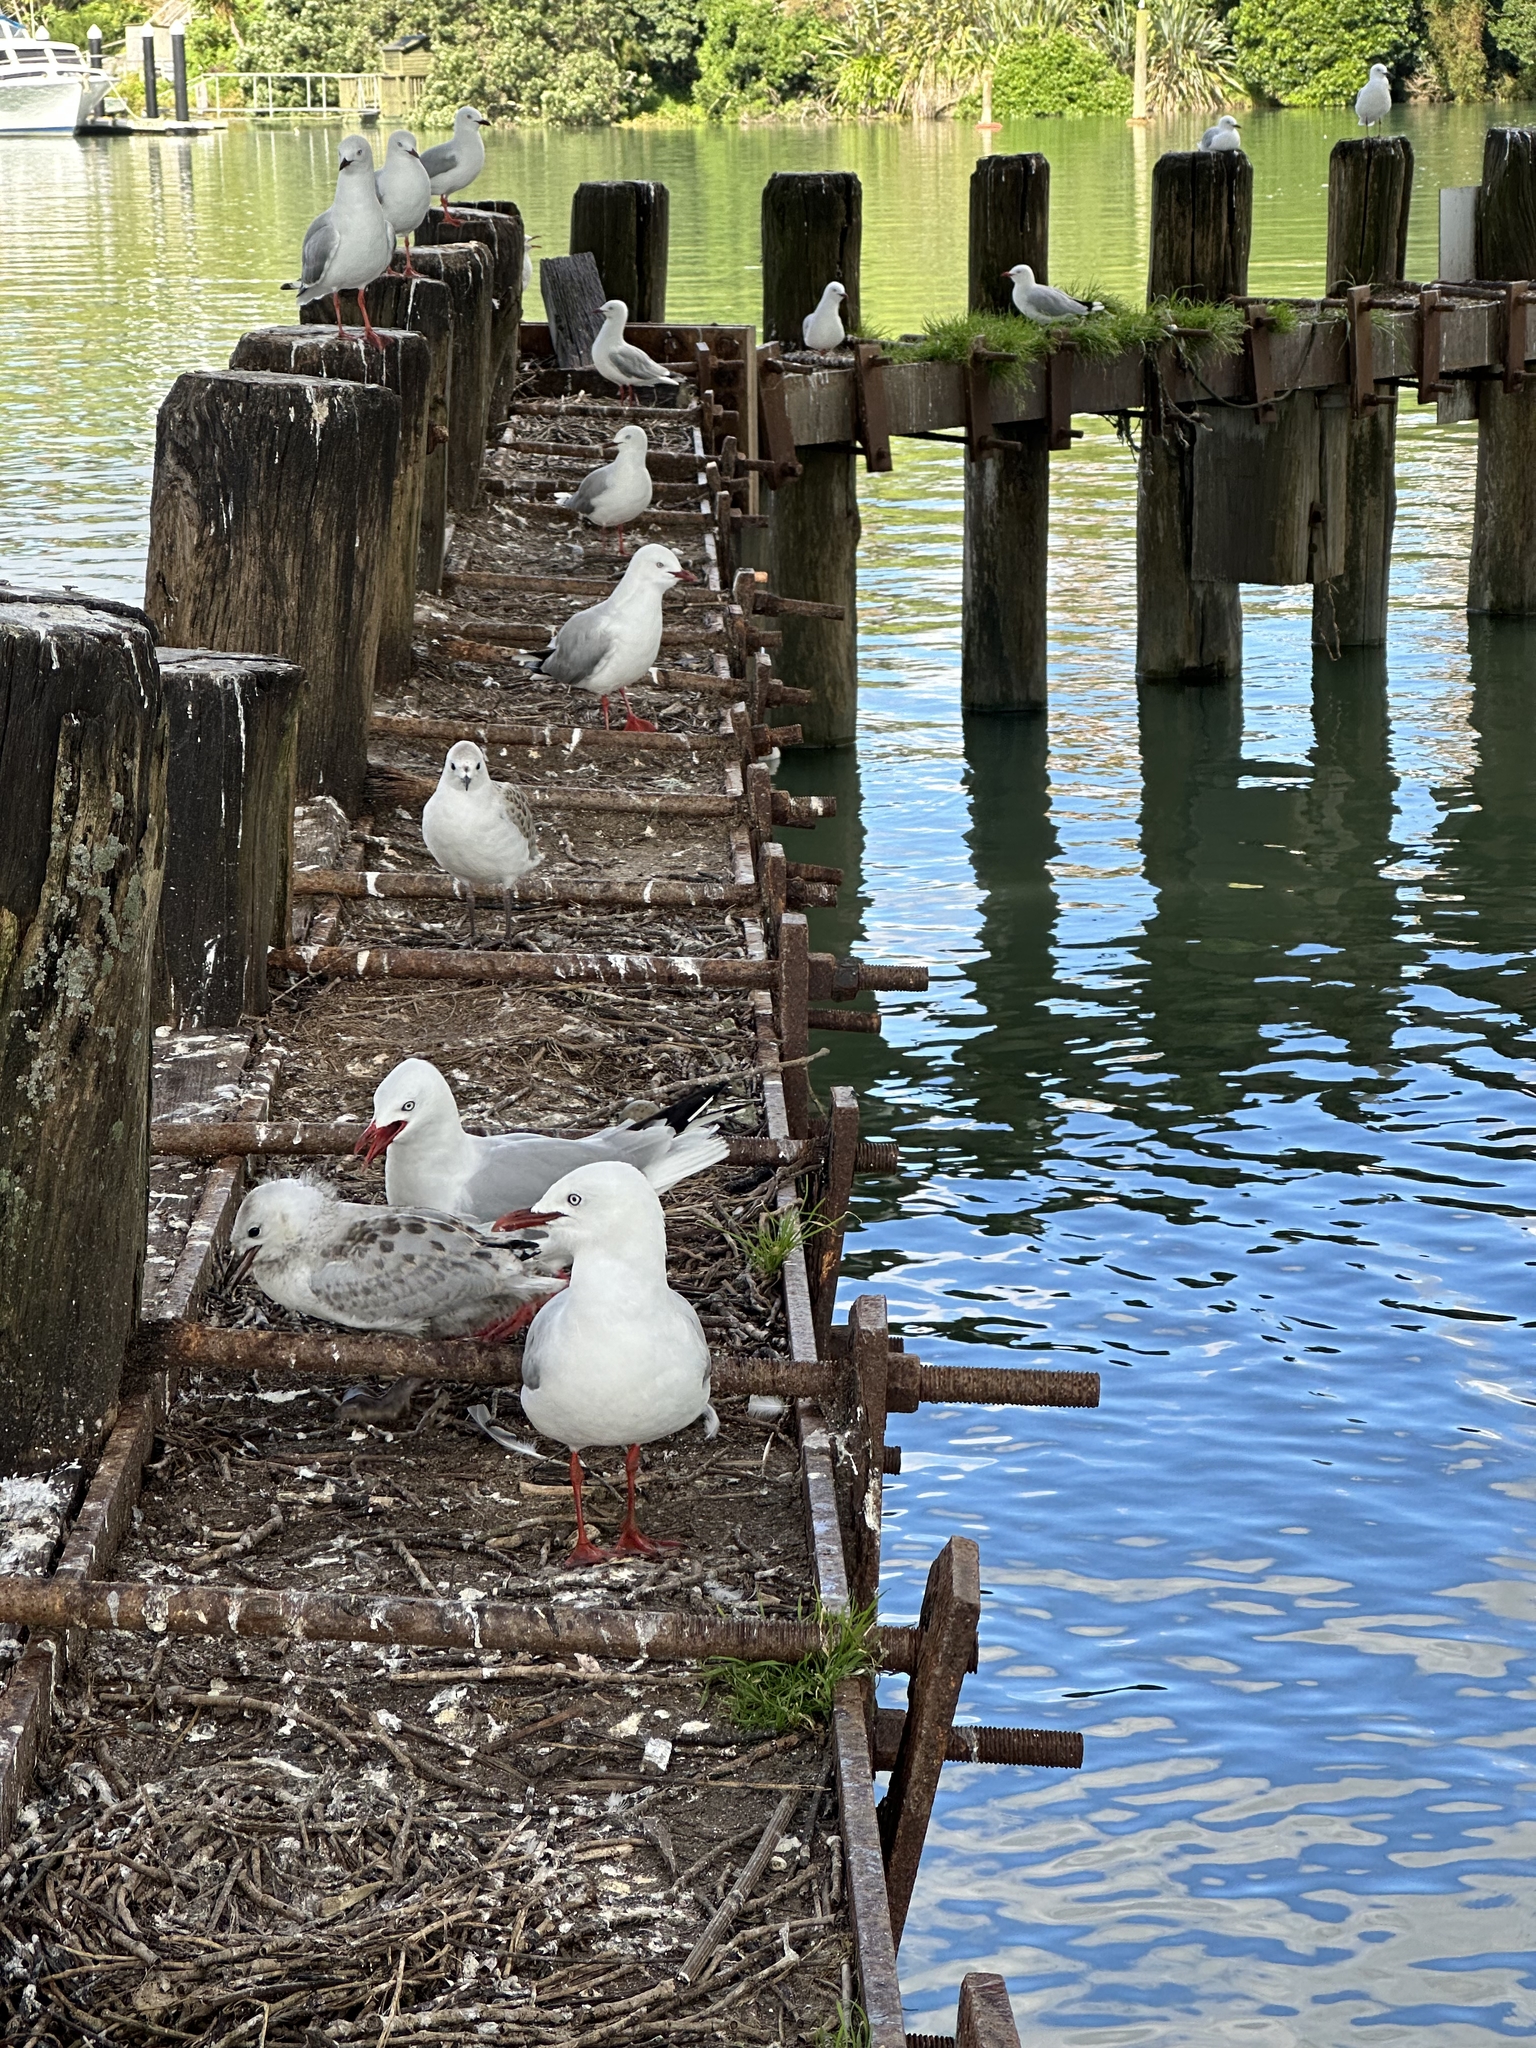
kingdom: Animalia
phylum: Chordata
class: Aves
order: Charadriiformes
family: Laridae
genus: Chroicocephalus
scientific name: Chroicocephalus novaehollandiae
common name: Silver gull
